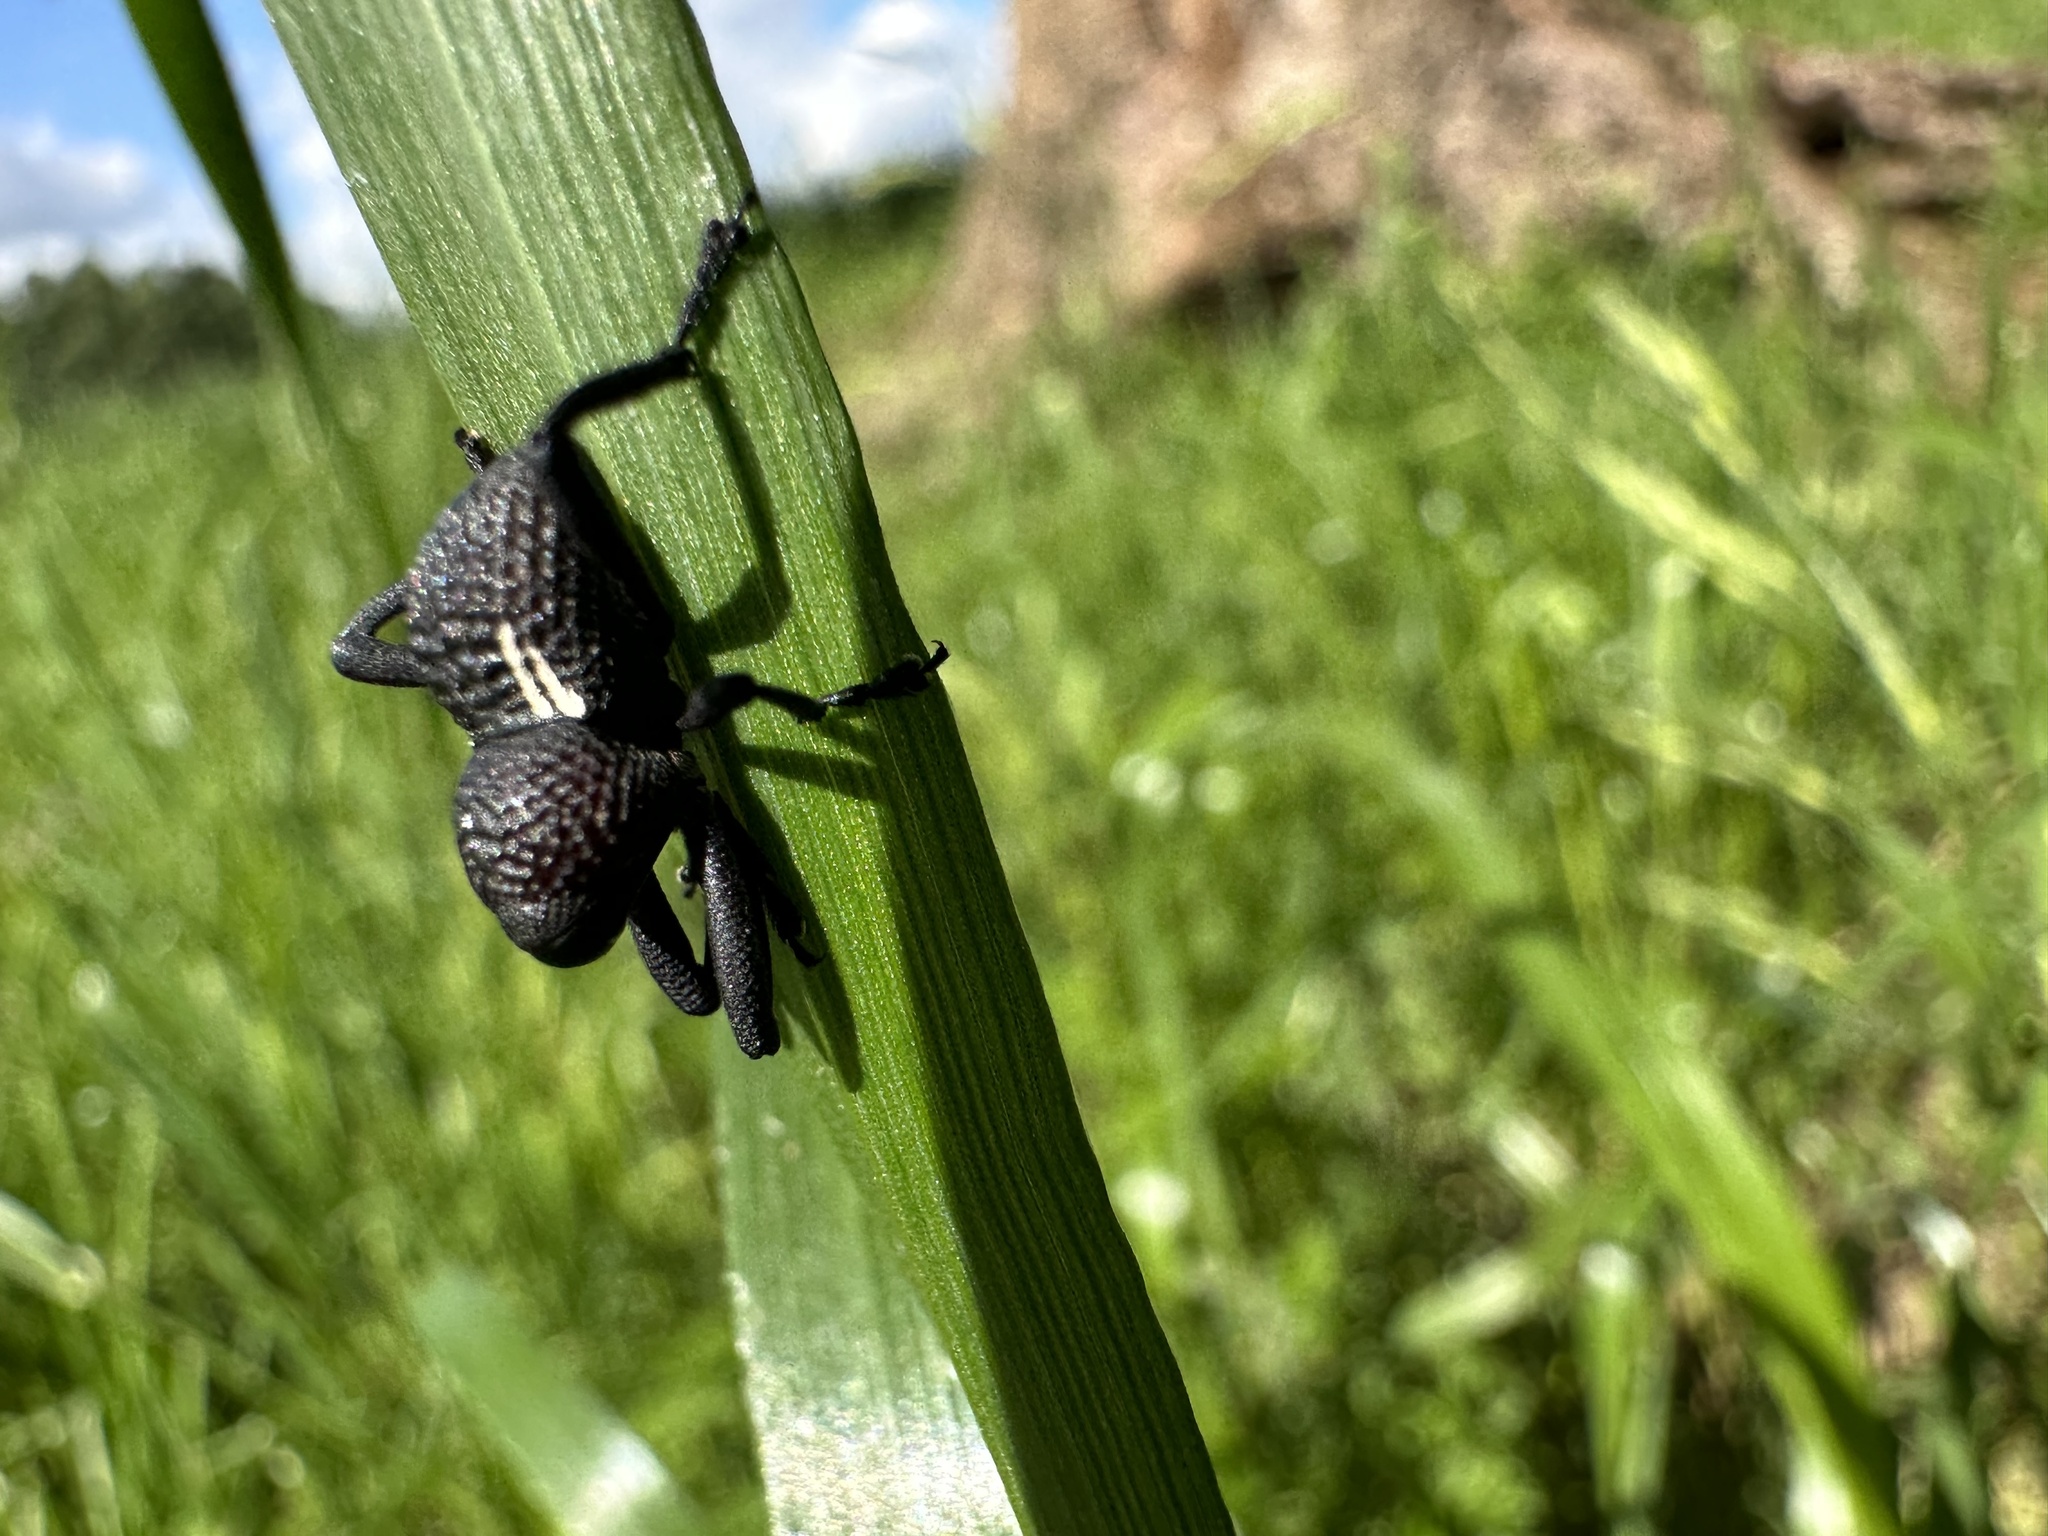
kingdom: Animalia
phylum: Arthropoda
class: Insecta
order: Coleoptera
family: Curculionidae
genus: Rhyephenes
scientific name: Rhyephenes humeralis
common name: Araè±ita chilena del pino
